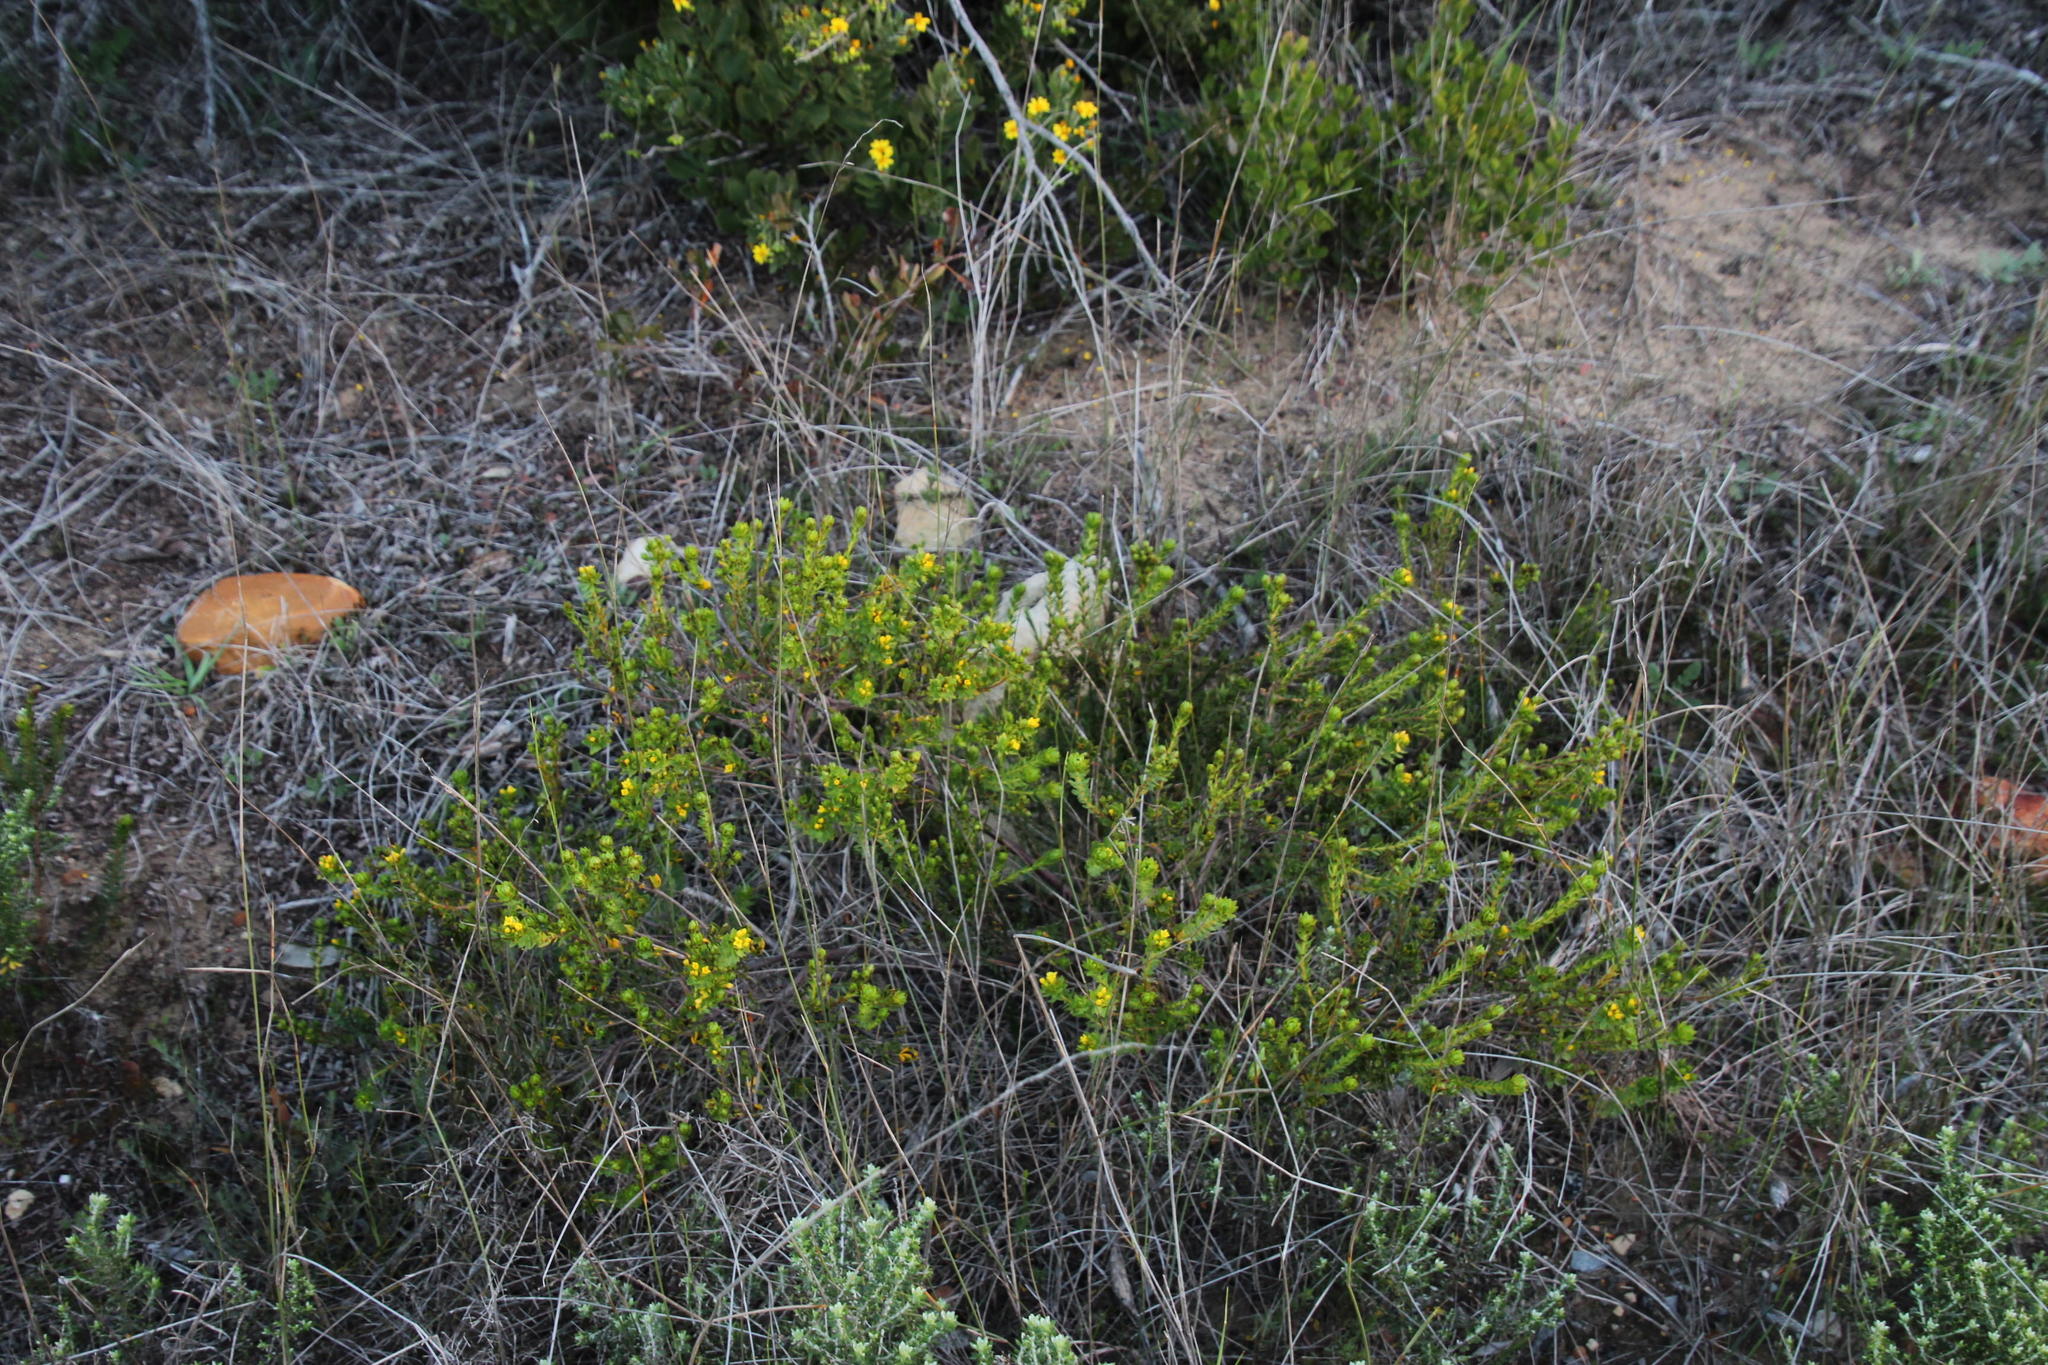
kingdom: Plantae
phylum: Tracheophyta
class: Magnoliopsida
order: Malvales
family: Thymelaeaceae
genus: Gnidia
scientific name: Gnidia juniperifolia
